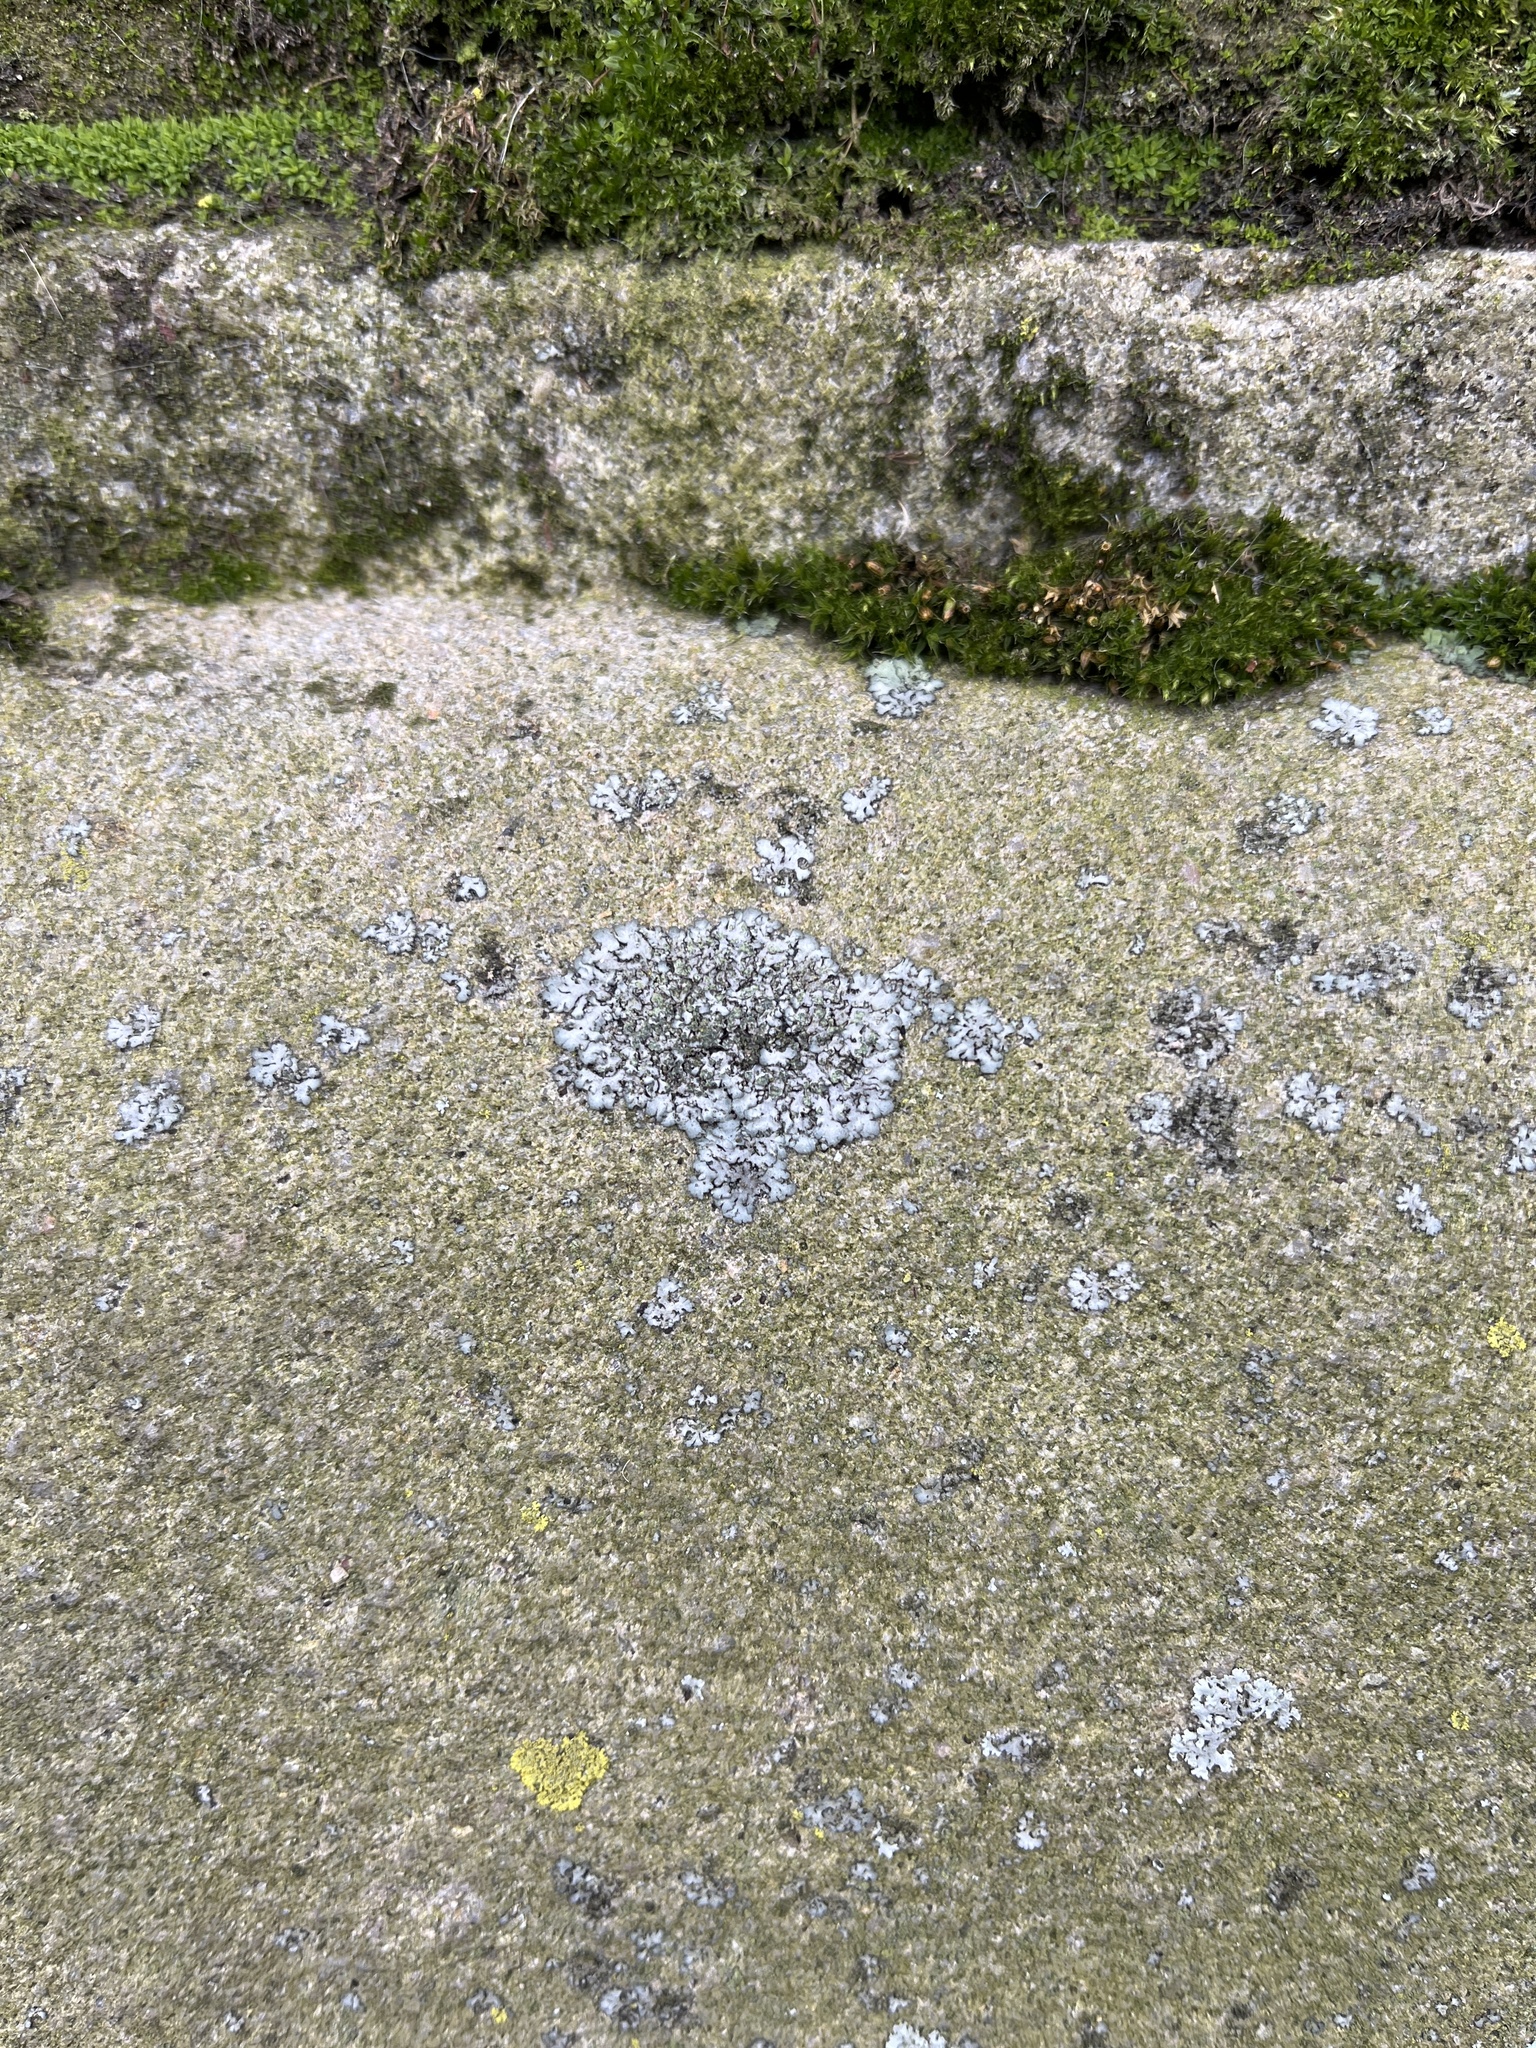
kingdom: Fungi
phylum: Ascomycota
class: Lecanoromycetes
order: Caliciales
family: Physciaceae
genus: Phaeophyscia
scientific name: Phaeophyscia orbicularis
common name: Mealy shadow lichen
